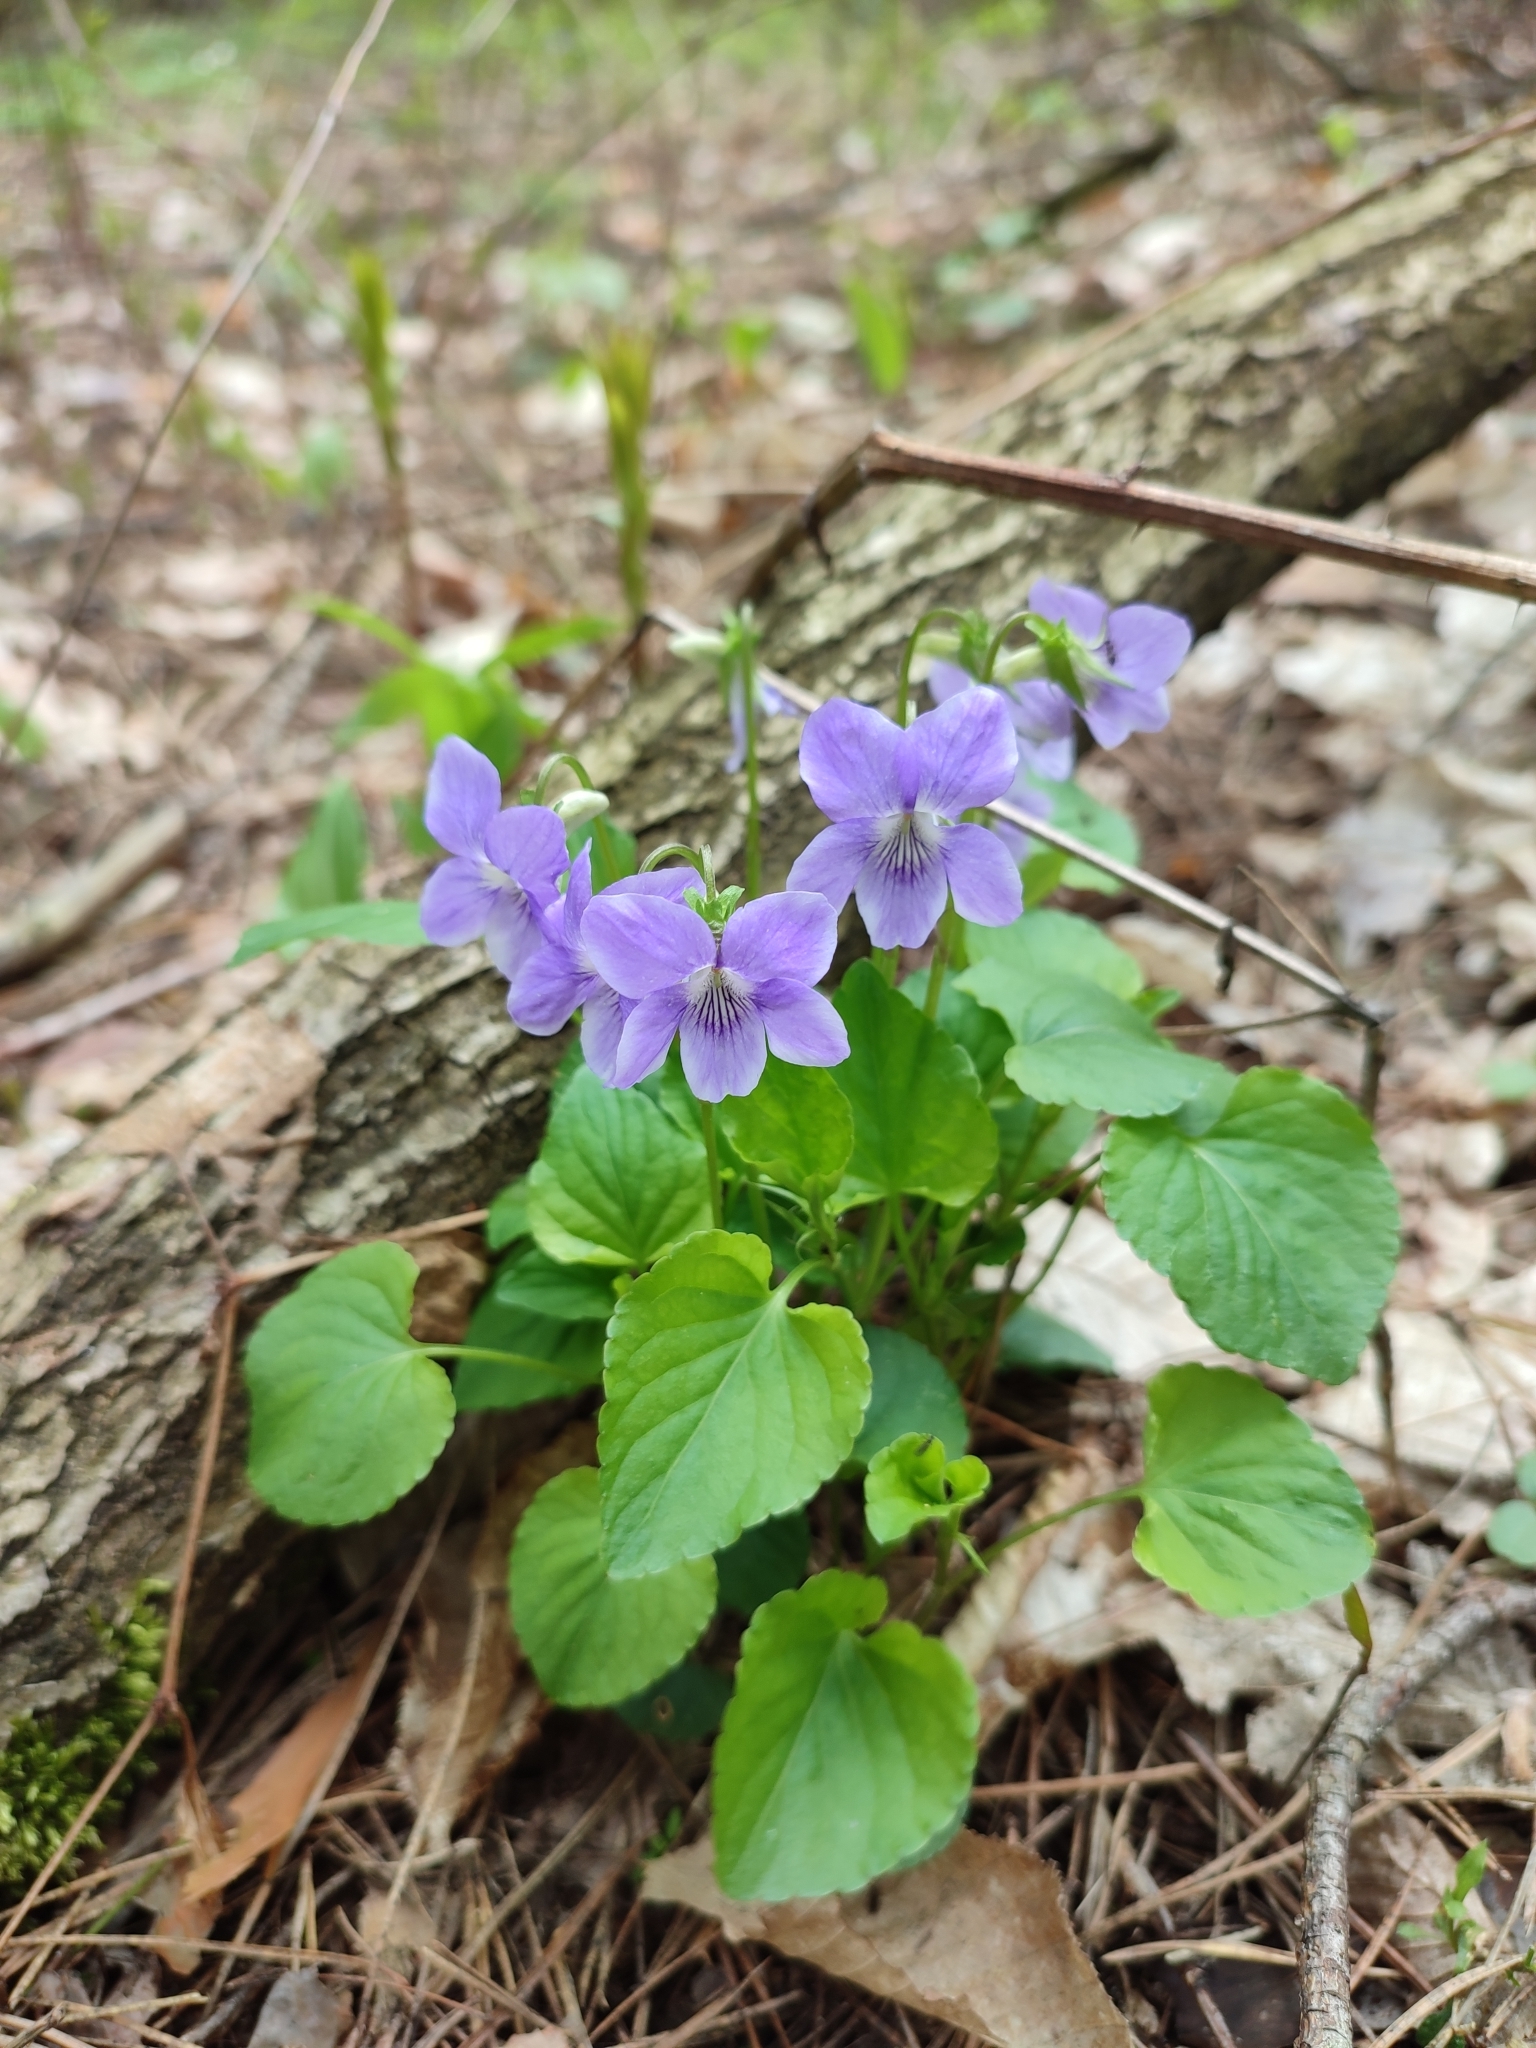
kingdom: Plantae
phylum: Tracheophyta
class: Magnoliopsida
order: Malpighiales
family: Violaceae
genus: Viola
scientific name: Viola riviniana
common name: Common dog-violet
